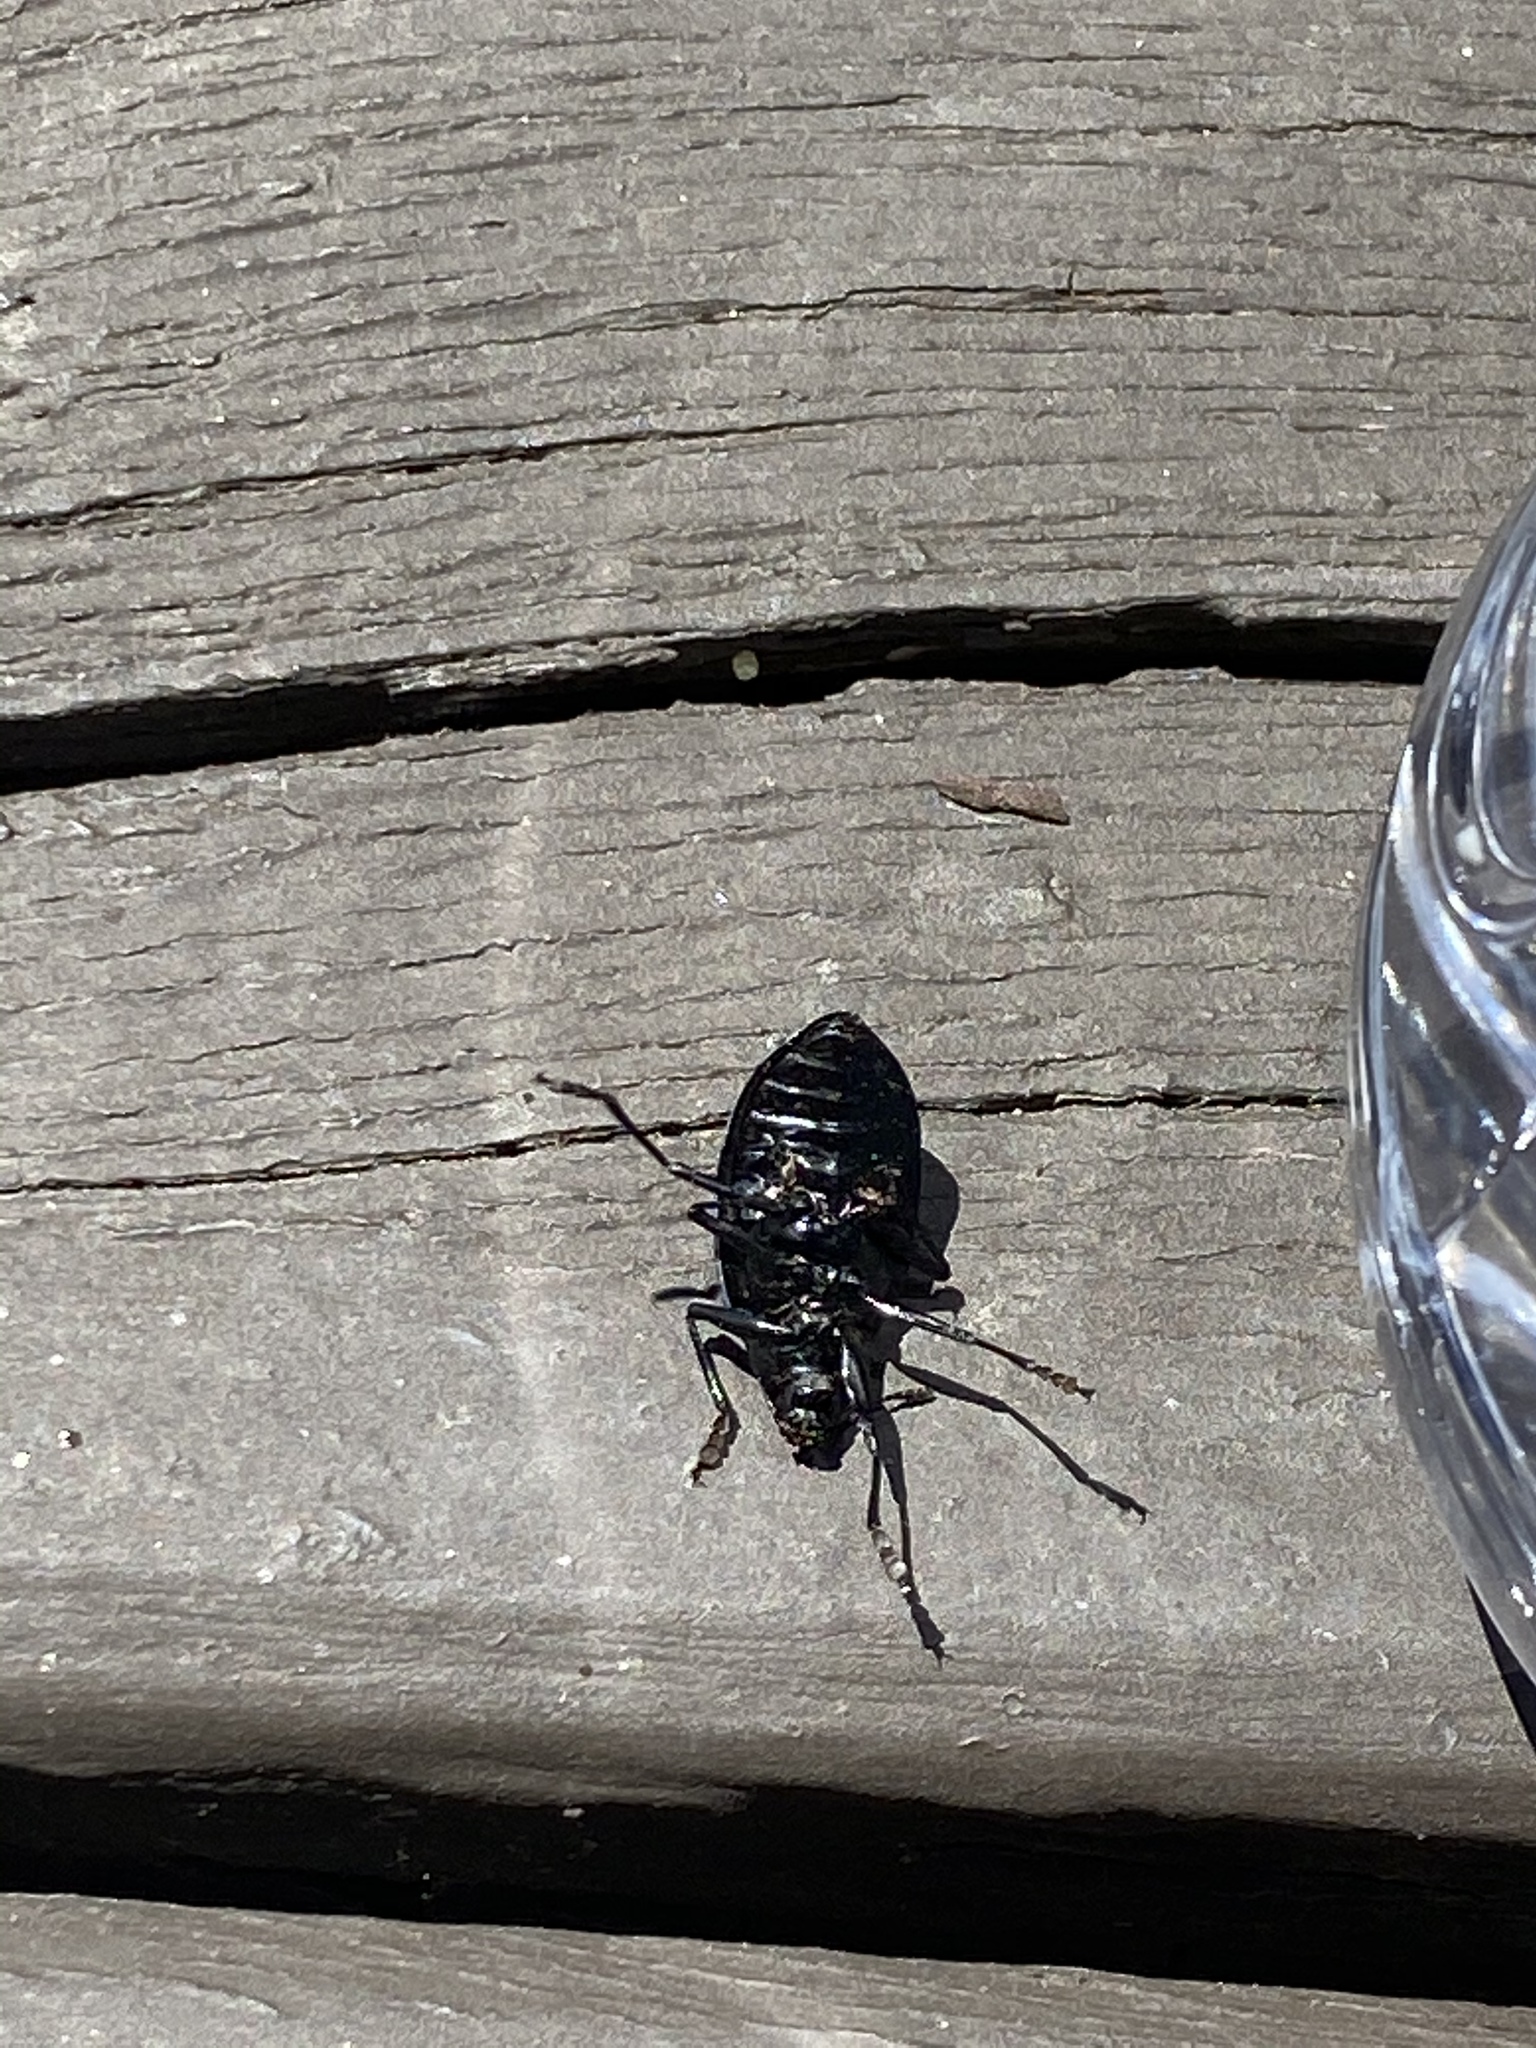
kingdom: Animalia
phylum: Arthropoda
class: Insecta
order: Coleoptera
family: Erotylidae
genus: Gibbifer
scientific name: Gibbifer californicus
